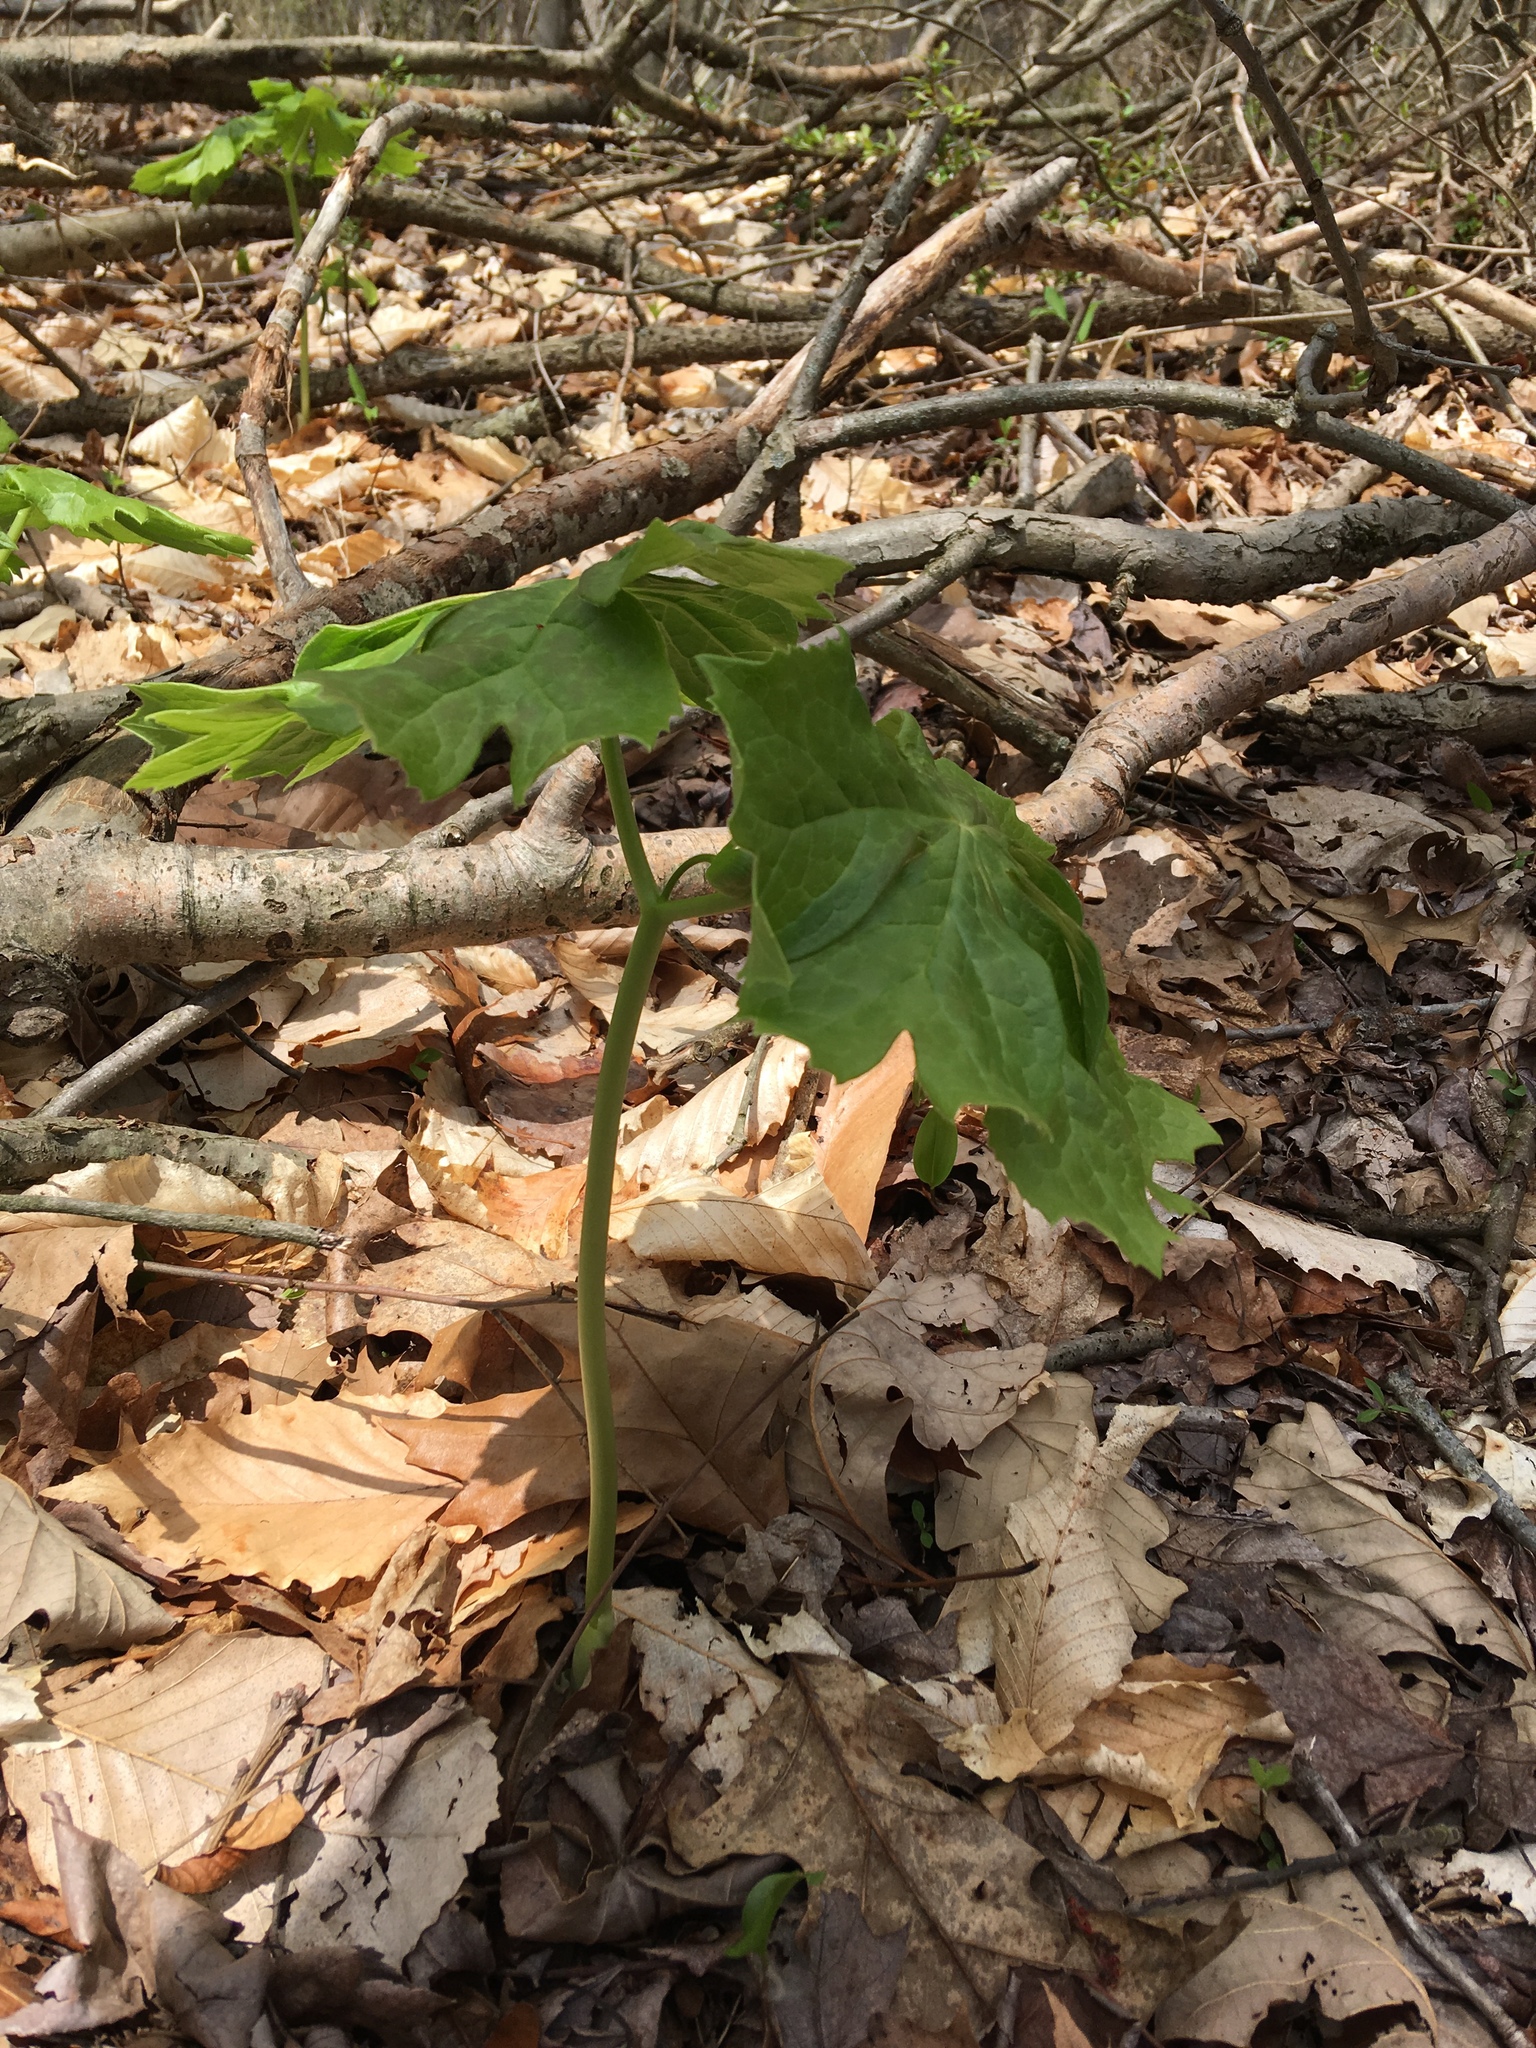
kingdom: Plantae
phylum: Tracheophyta
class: Magnoliopsida
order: Ranunculales
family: Berberidaceae
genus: Podophyllum
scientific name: Podophyllum peltatum
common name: Wild mandrake
